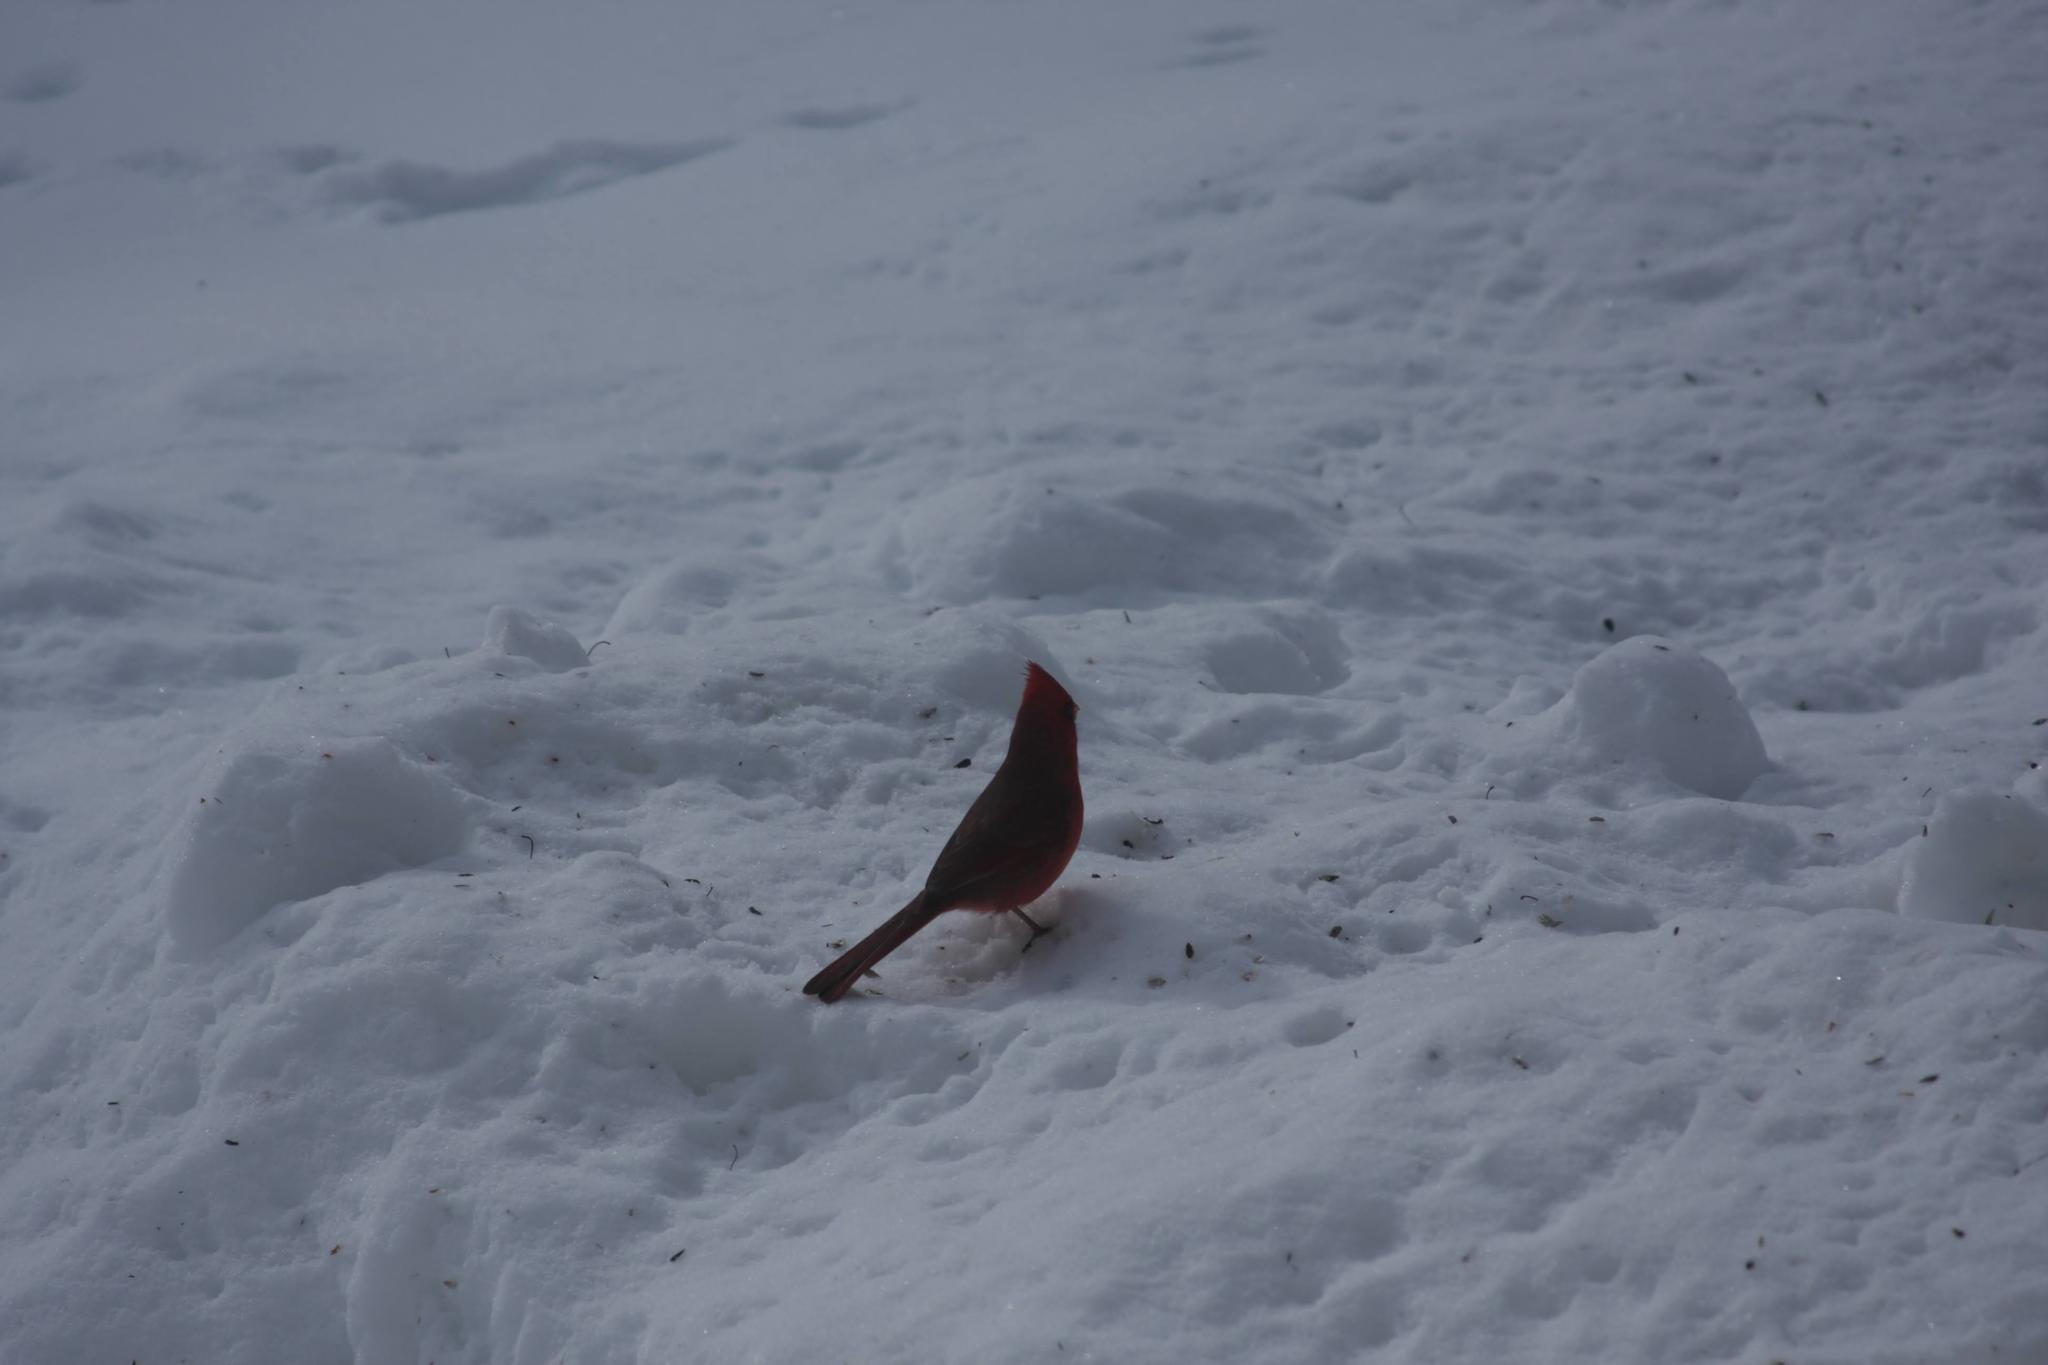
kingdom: Animalia
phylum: Chordata
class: Aves
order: Passeriformes
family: Cardinalidae
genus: Cardinalis
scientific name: Cardinalis cardinalis
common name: Northern cardinal
